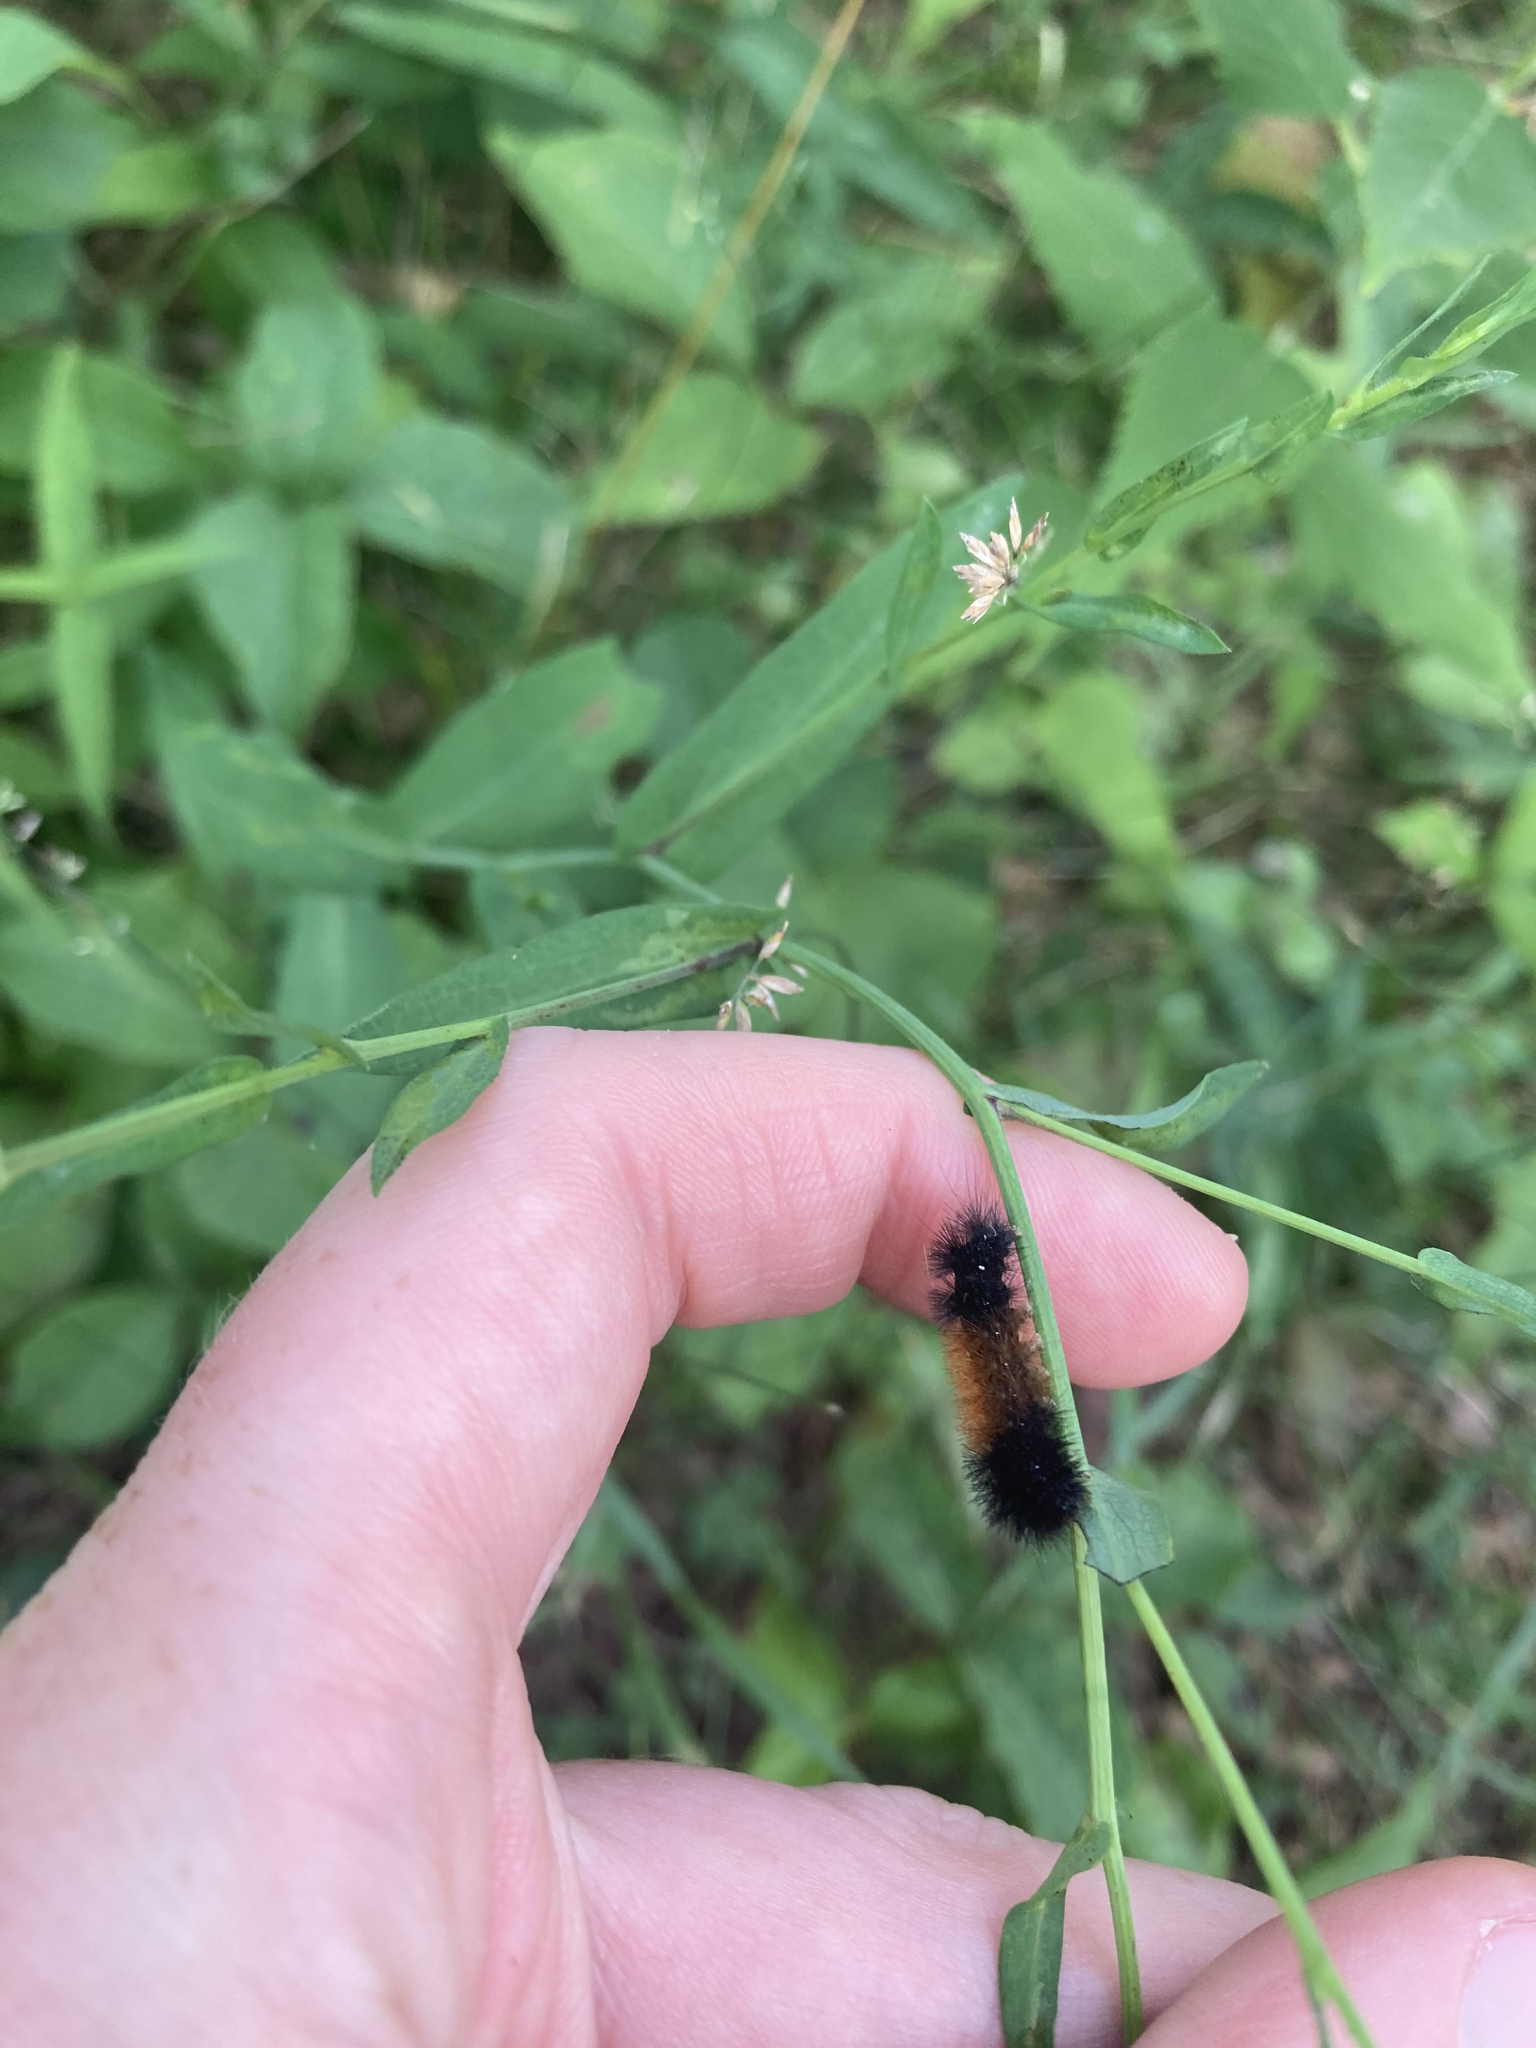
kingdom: Animalia
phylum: Arthropoda
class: Insecta
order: Lepidoptera
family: Erebidae
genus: Pyrrharctia
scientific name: Pyrrharctia isabella
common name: Isabella tiger moth
